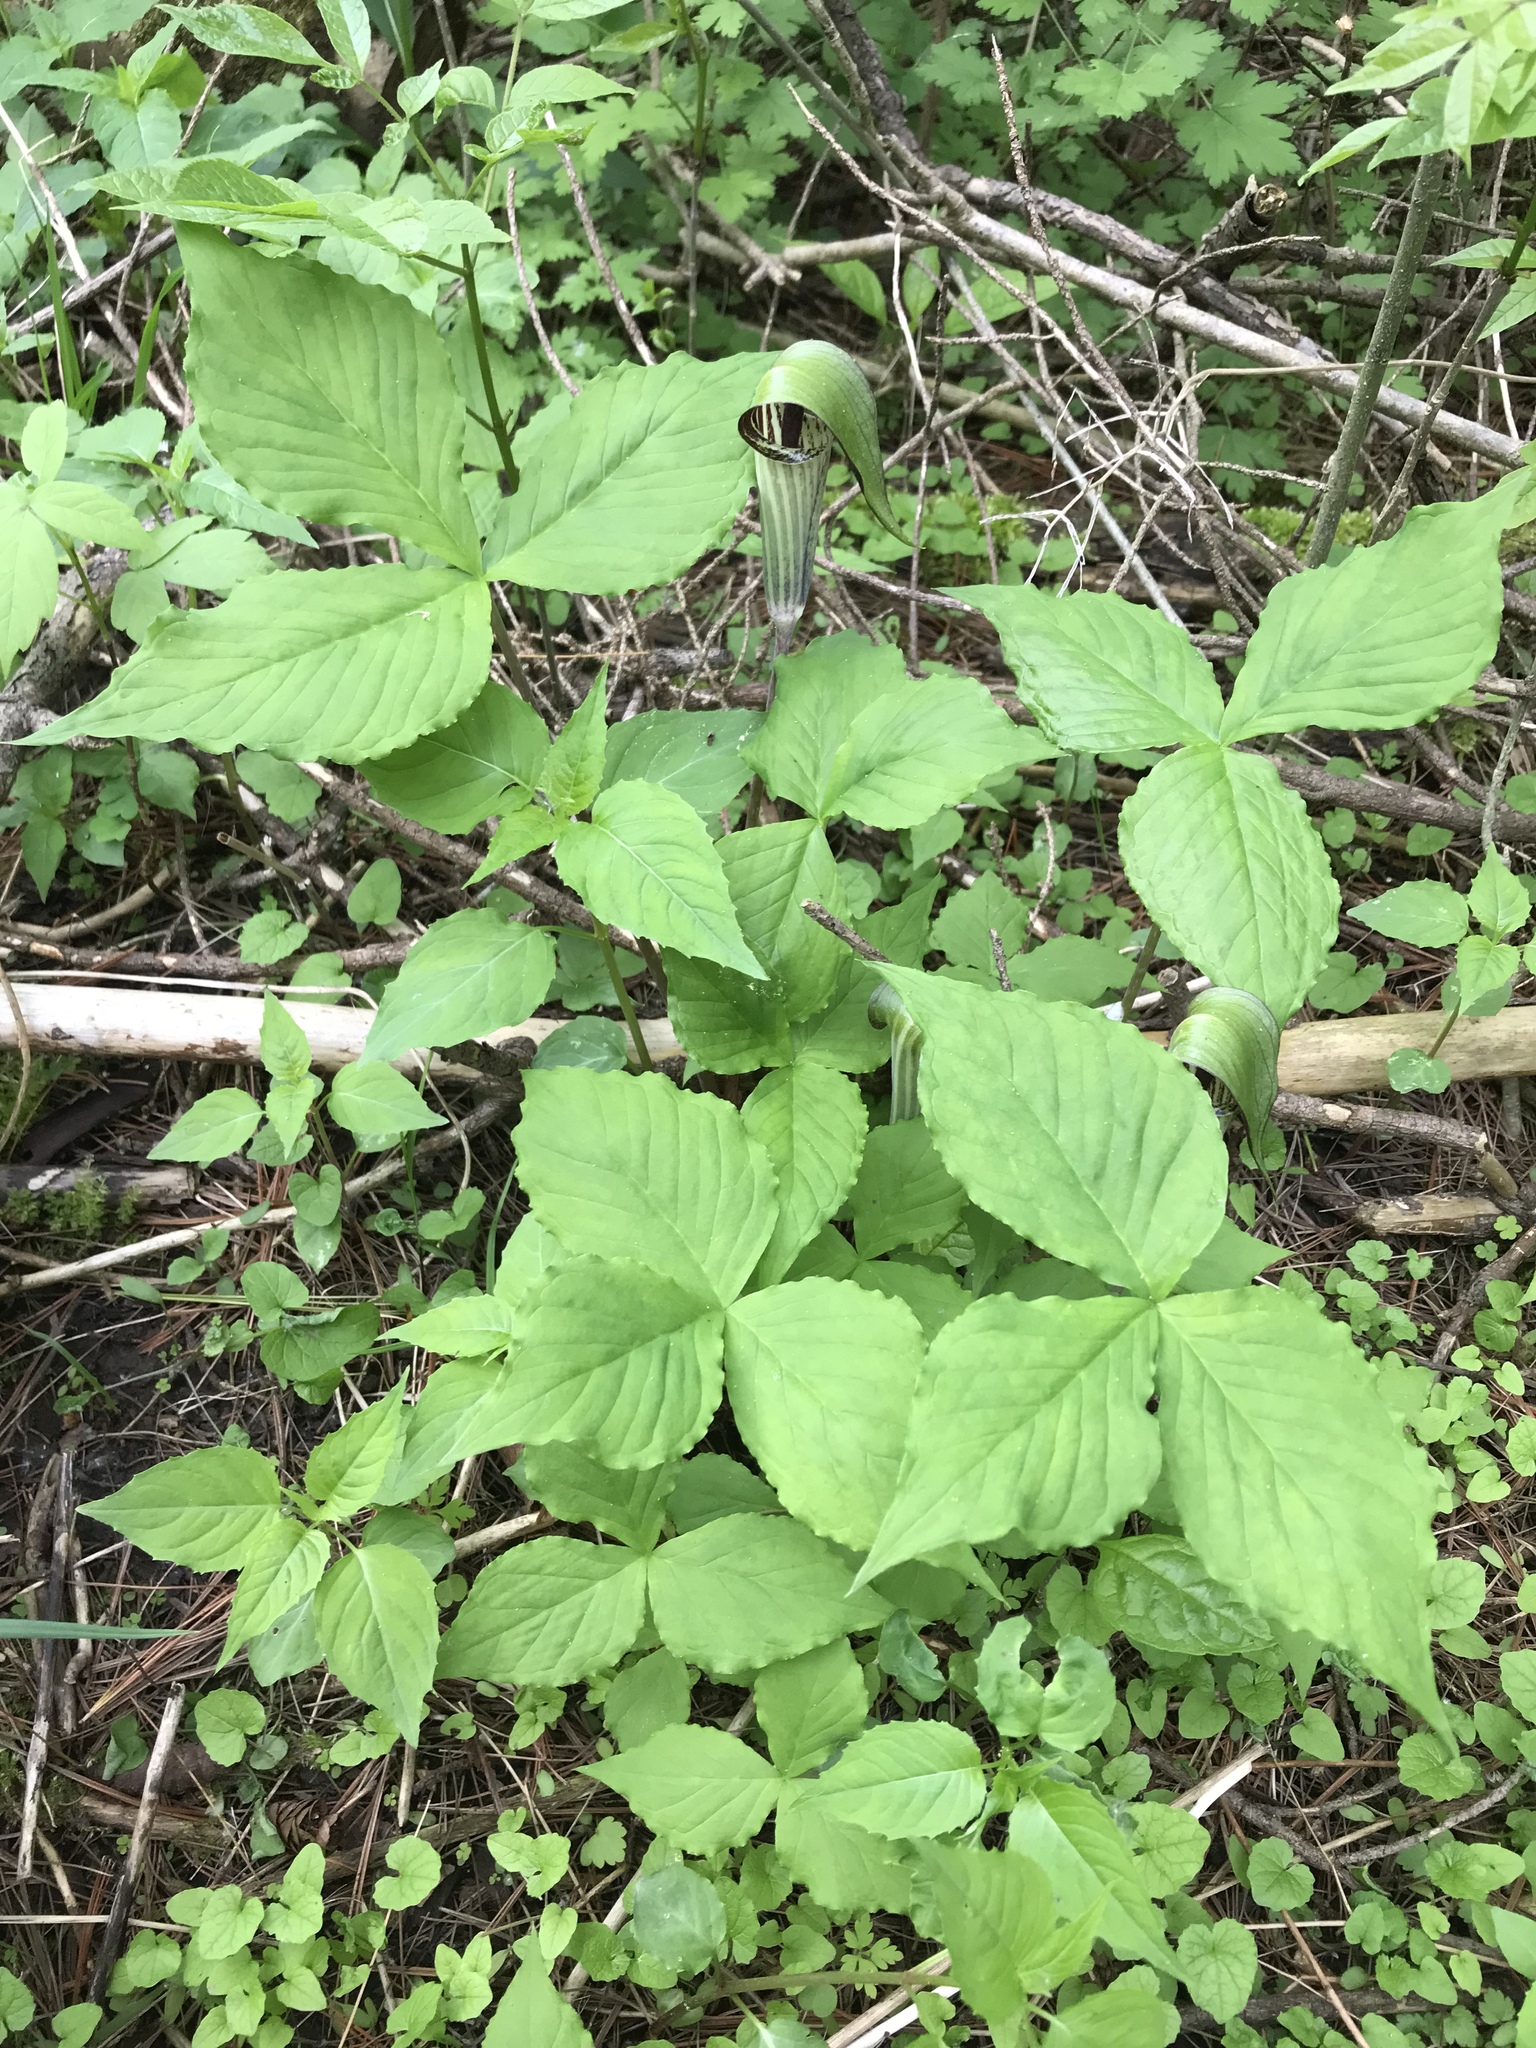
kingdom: Plantae
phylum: Tracheophyta
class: Liliopsida
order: Alismatales
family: Araceae
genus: Arisaema
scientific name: Arisaema triphyllum
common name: Jack-in-the-pulpit
